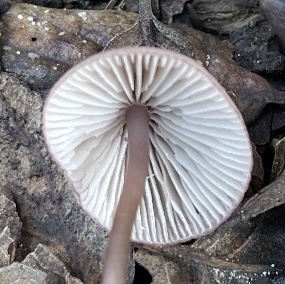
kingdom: Fungi
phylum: Basidiomycota
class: Agaricomycetes
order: Agaricales
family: Mycenaceae
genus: Mycena
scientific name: Mycena bulliformis
